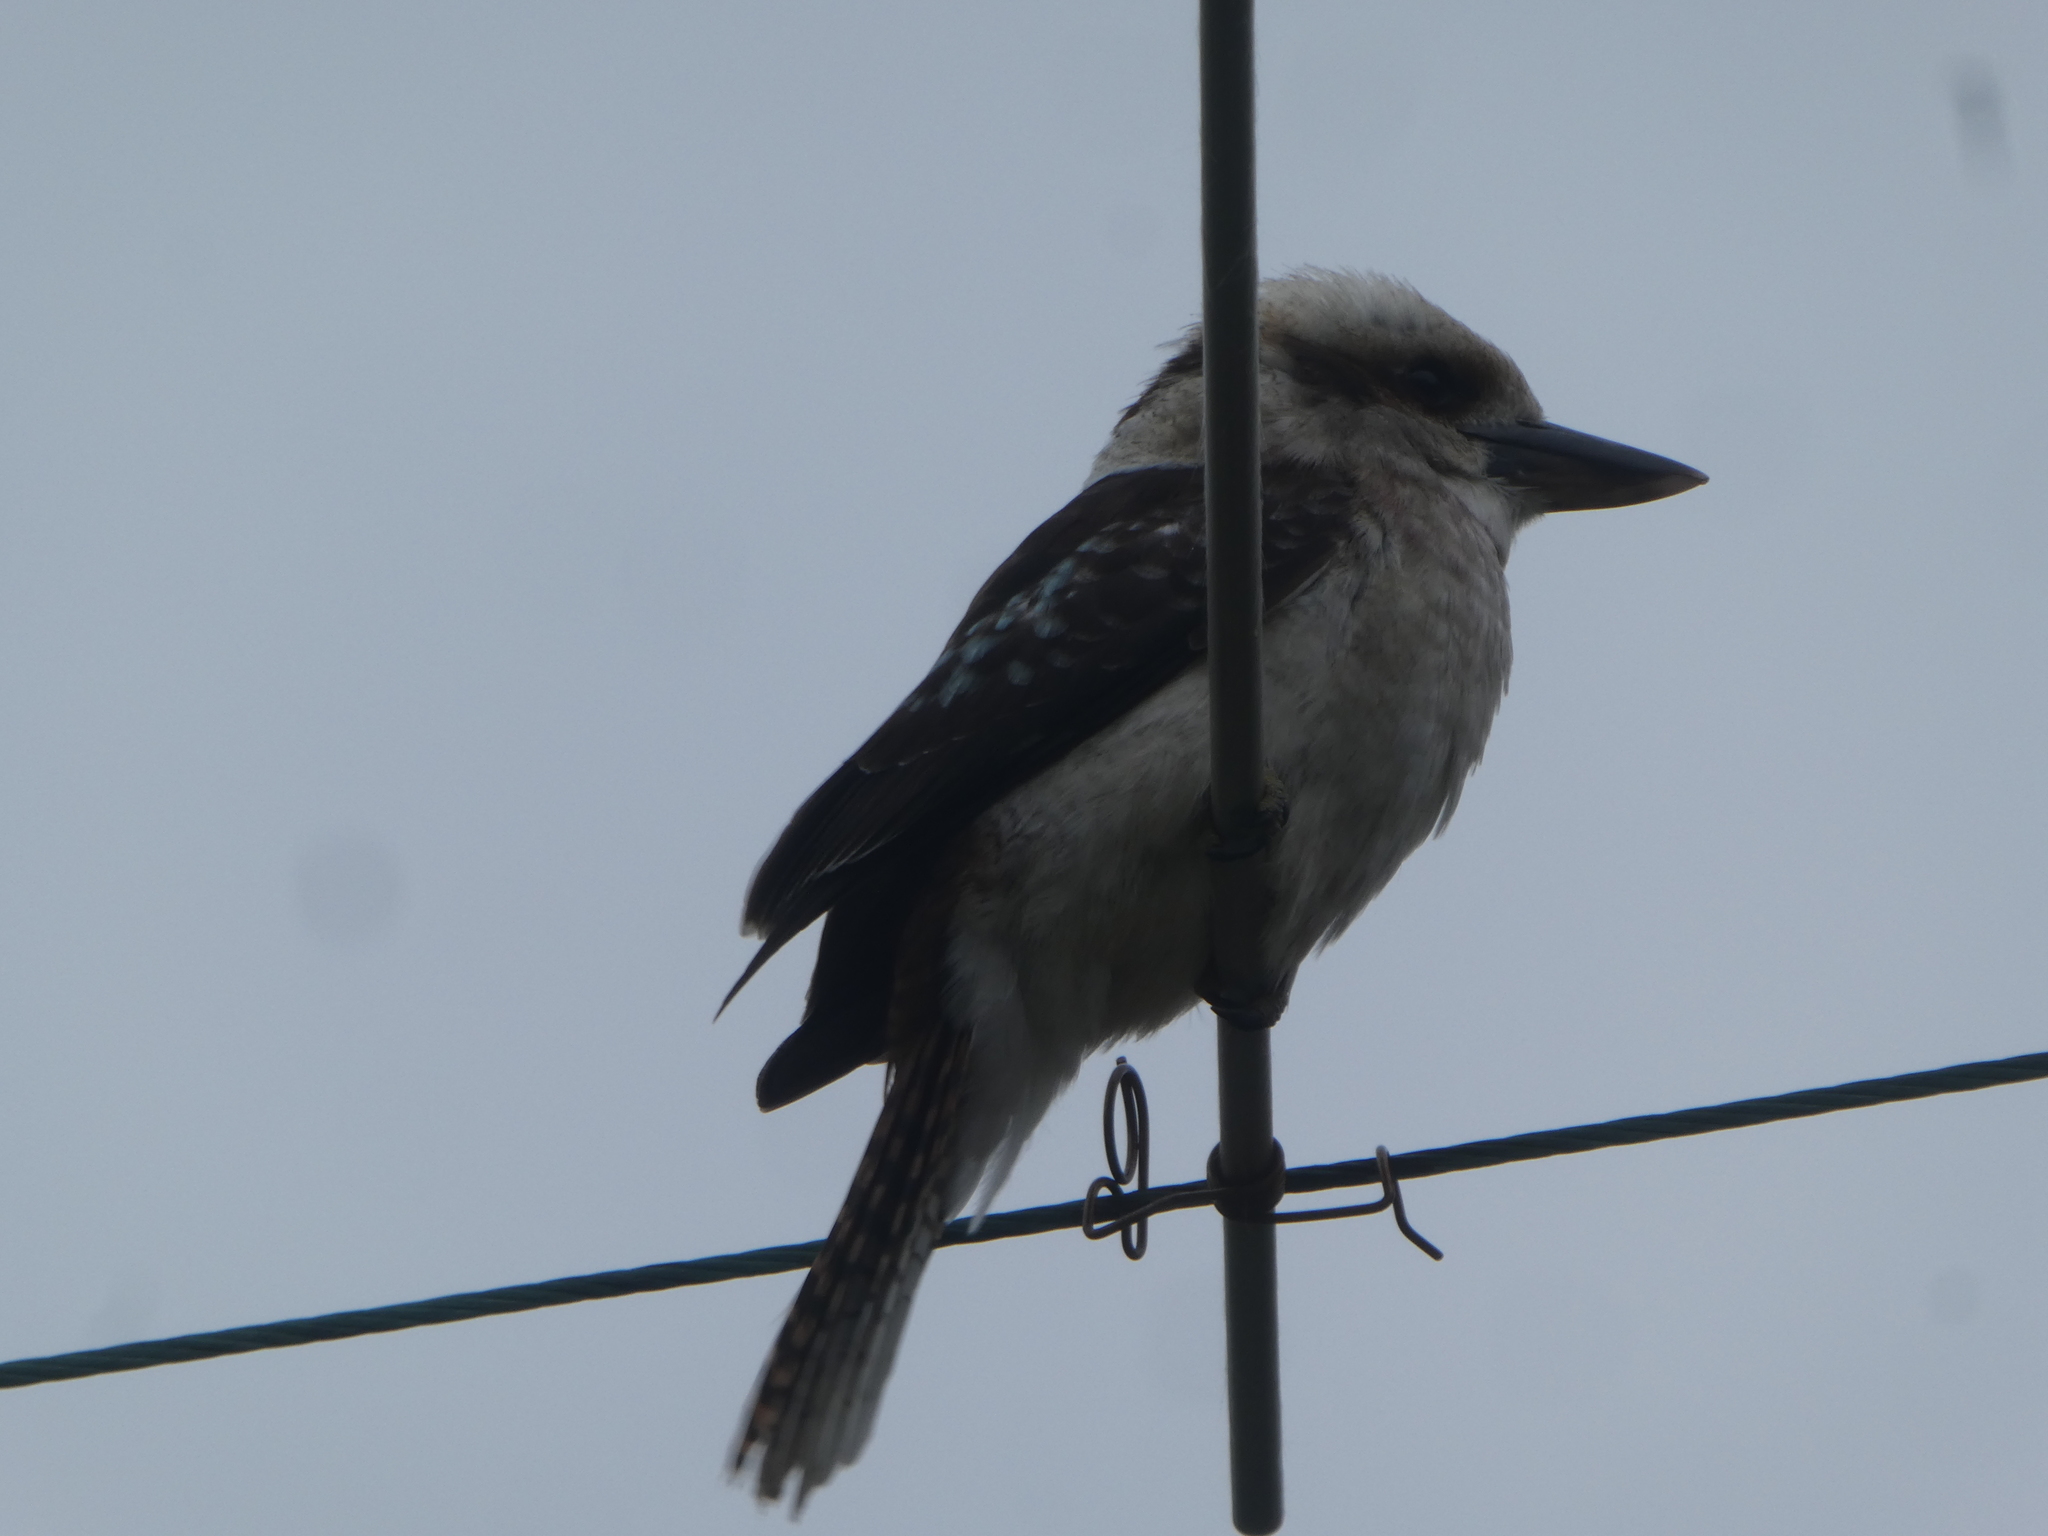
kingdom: Animalia
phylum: Chordata
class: Aves
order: Coraciiformes
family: Alcedinidae
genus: Dacelo
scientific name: Dacelo novaeguineae
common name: Laughing kookaburra
